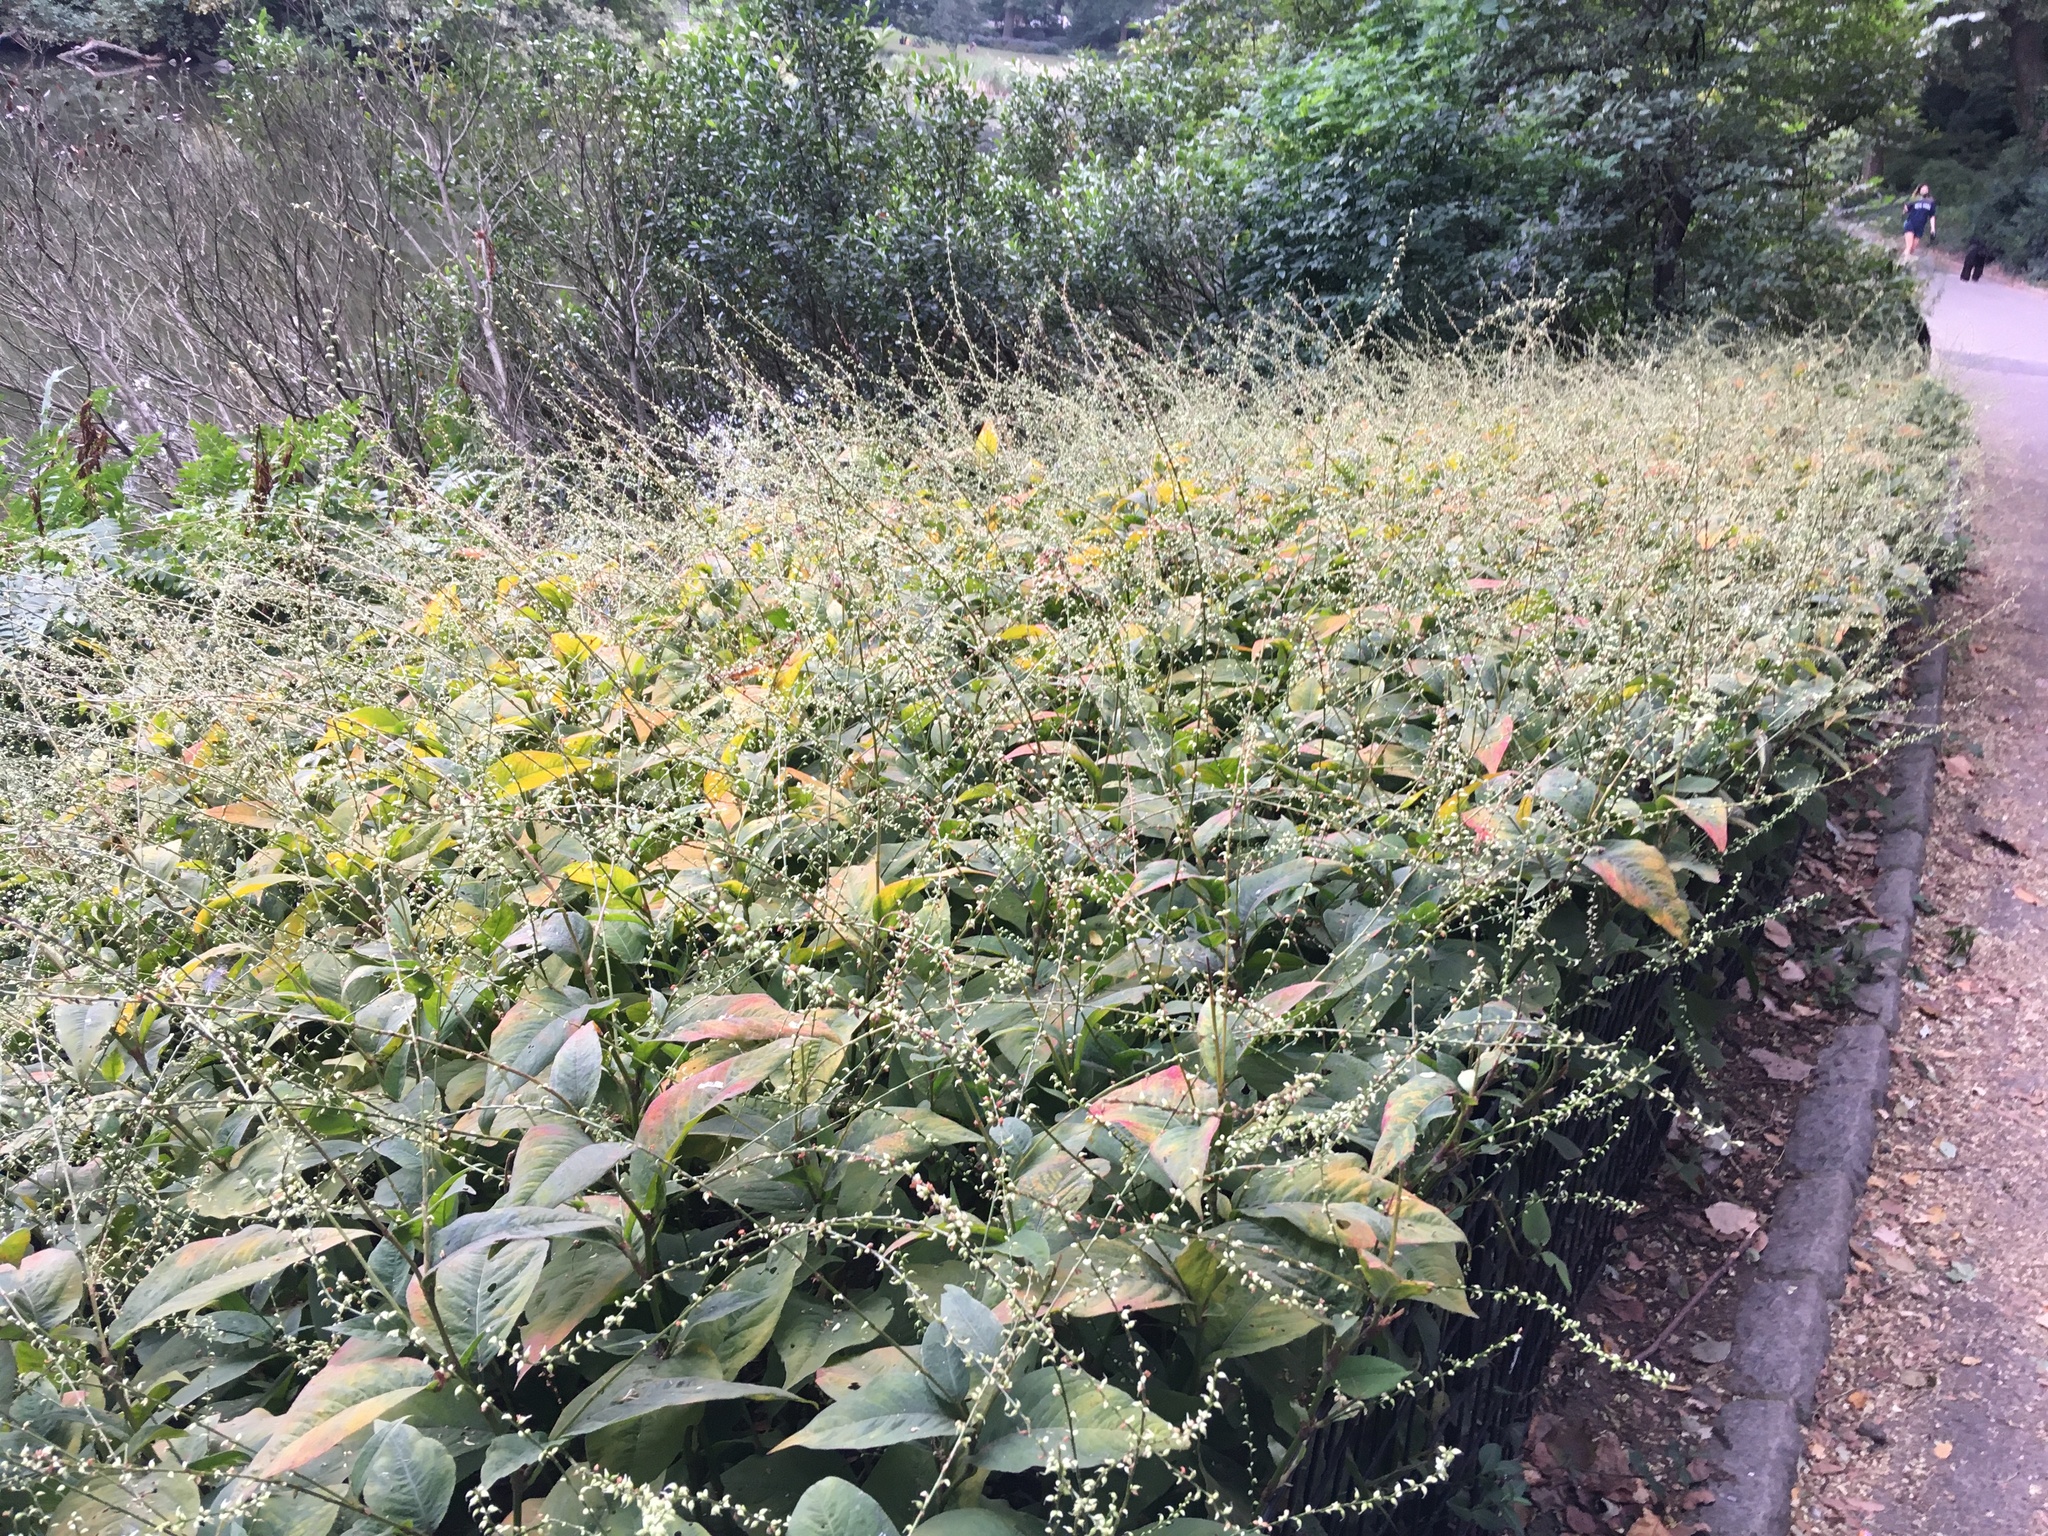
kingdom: Plantae
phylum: Tracheophyta
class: Magnoliopsida
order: Caryophyllales
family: Polygonaceae
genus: Persicaria
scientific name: Persicaria virginiana
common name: Jumpseed
